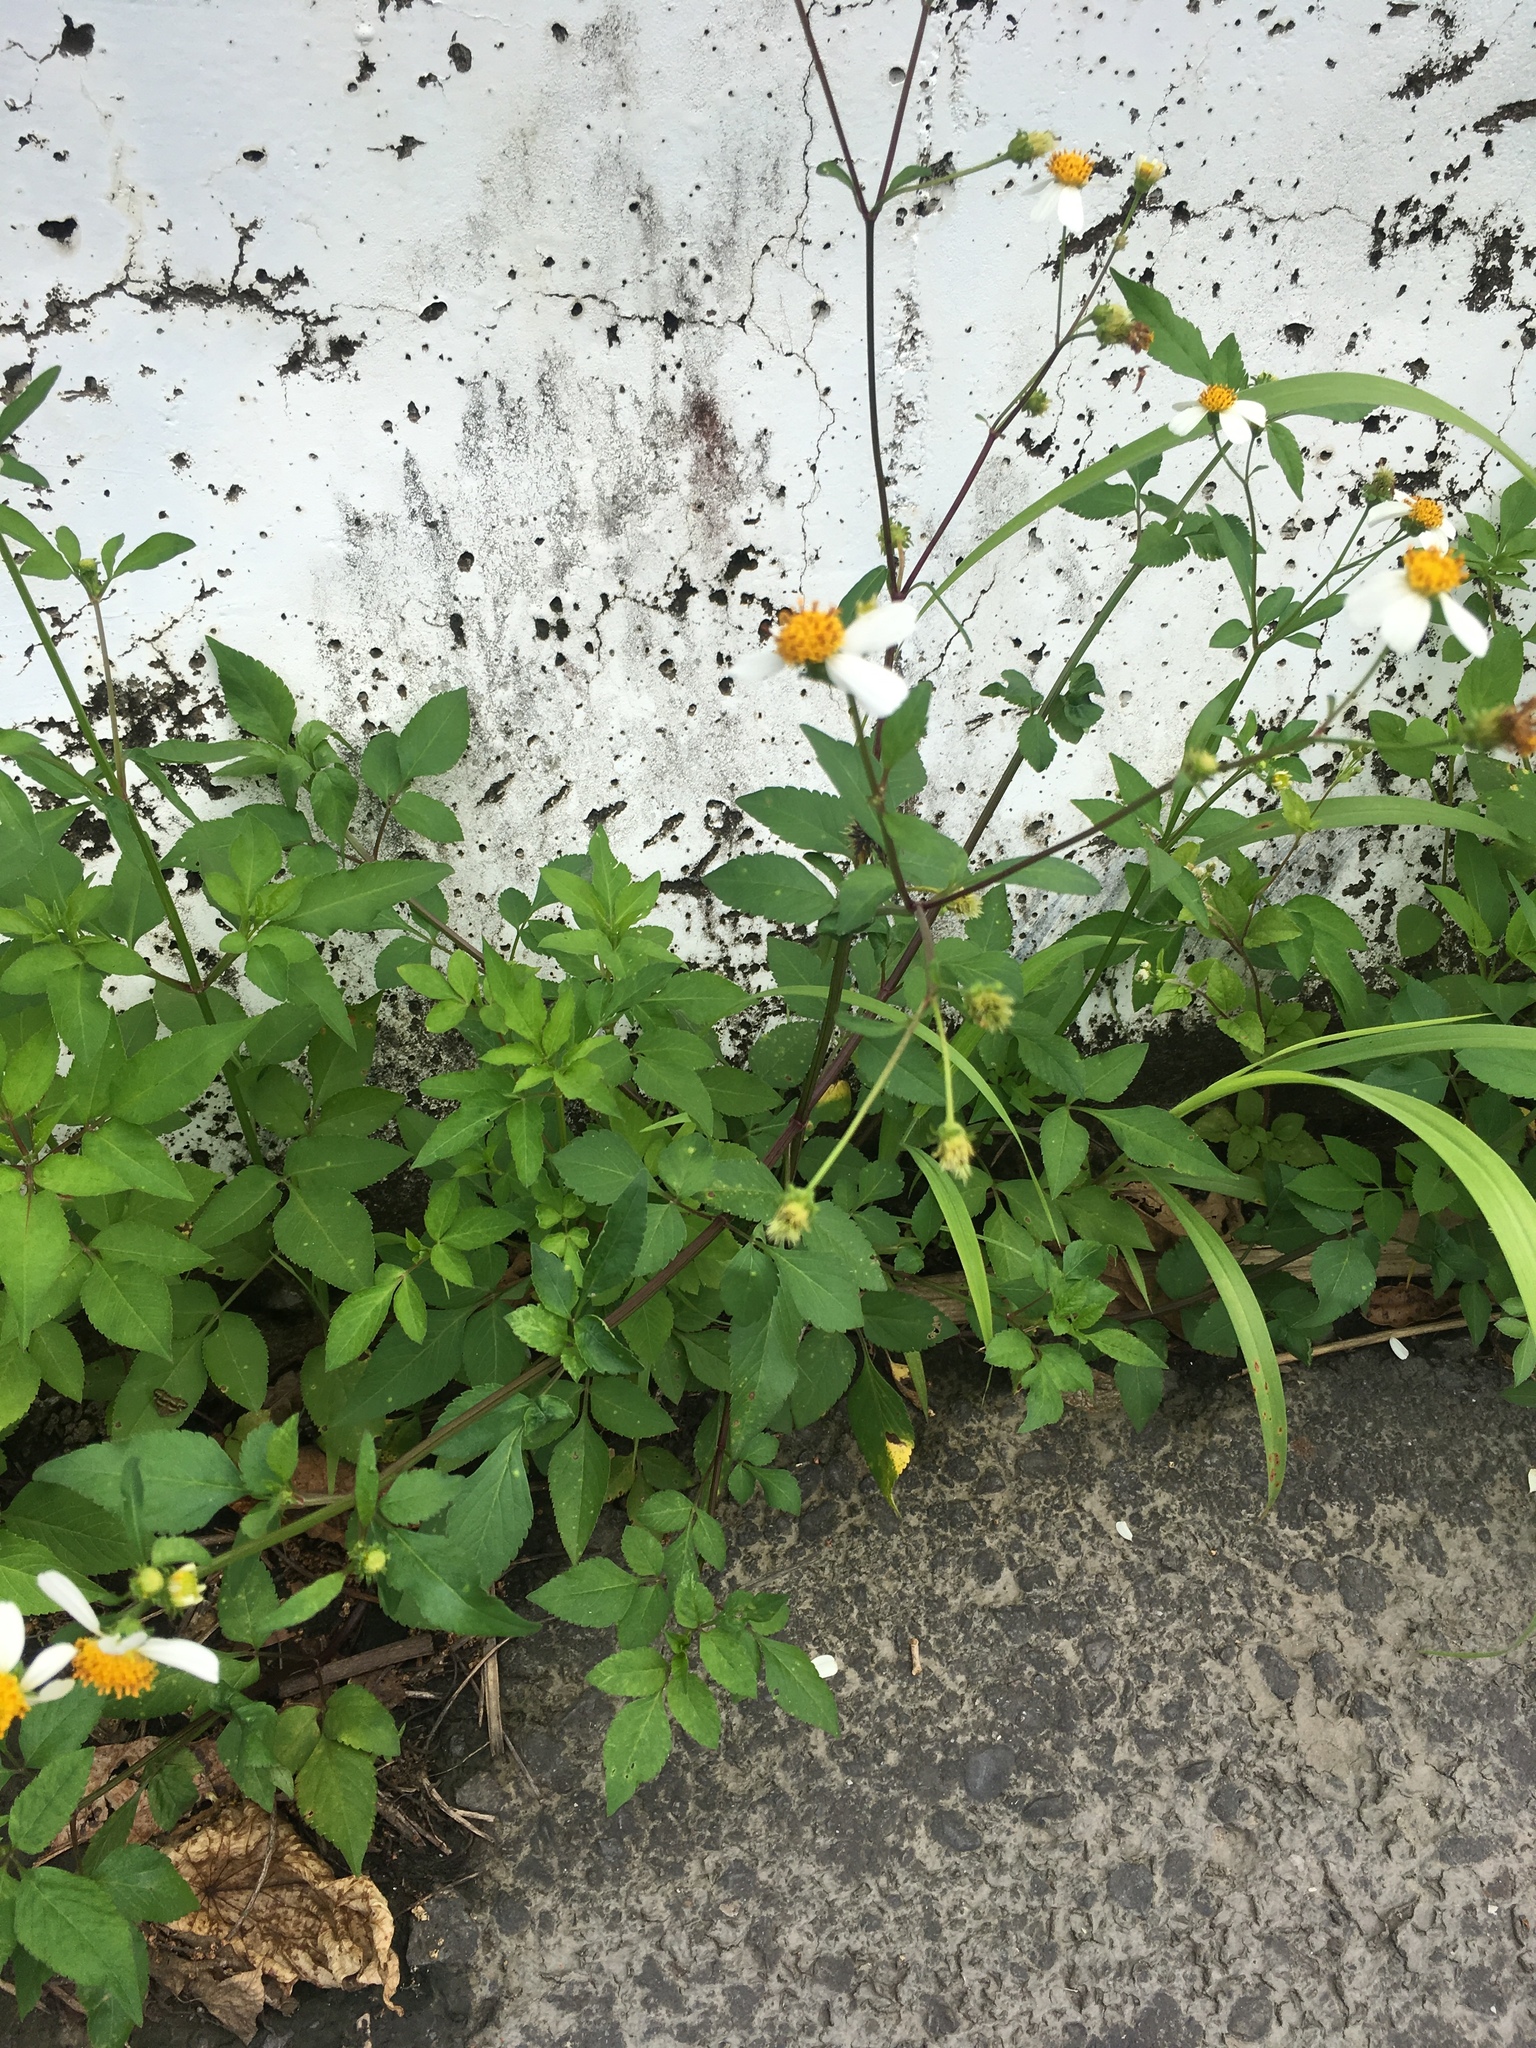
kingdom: Plantae
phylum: Tracheophyta
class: Magnoliopsida
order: Asterales
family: Asteraceae
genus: Bidens
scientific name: Bidens alba
